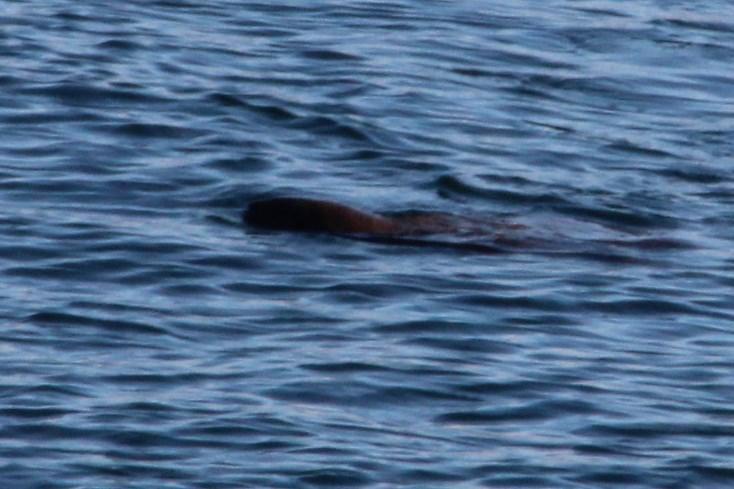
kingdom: Animalia
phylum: Chordata
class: Mammalia
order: Carnivora
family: Otariidae
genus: Otaria
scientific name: Otaria byronia
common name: South american sea lion
